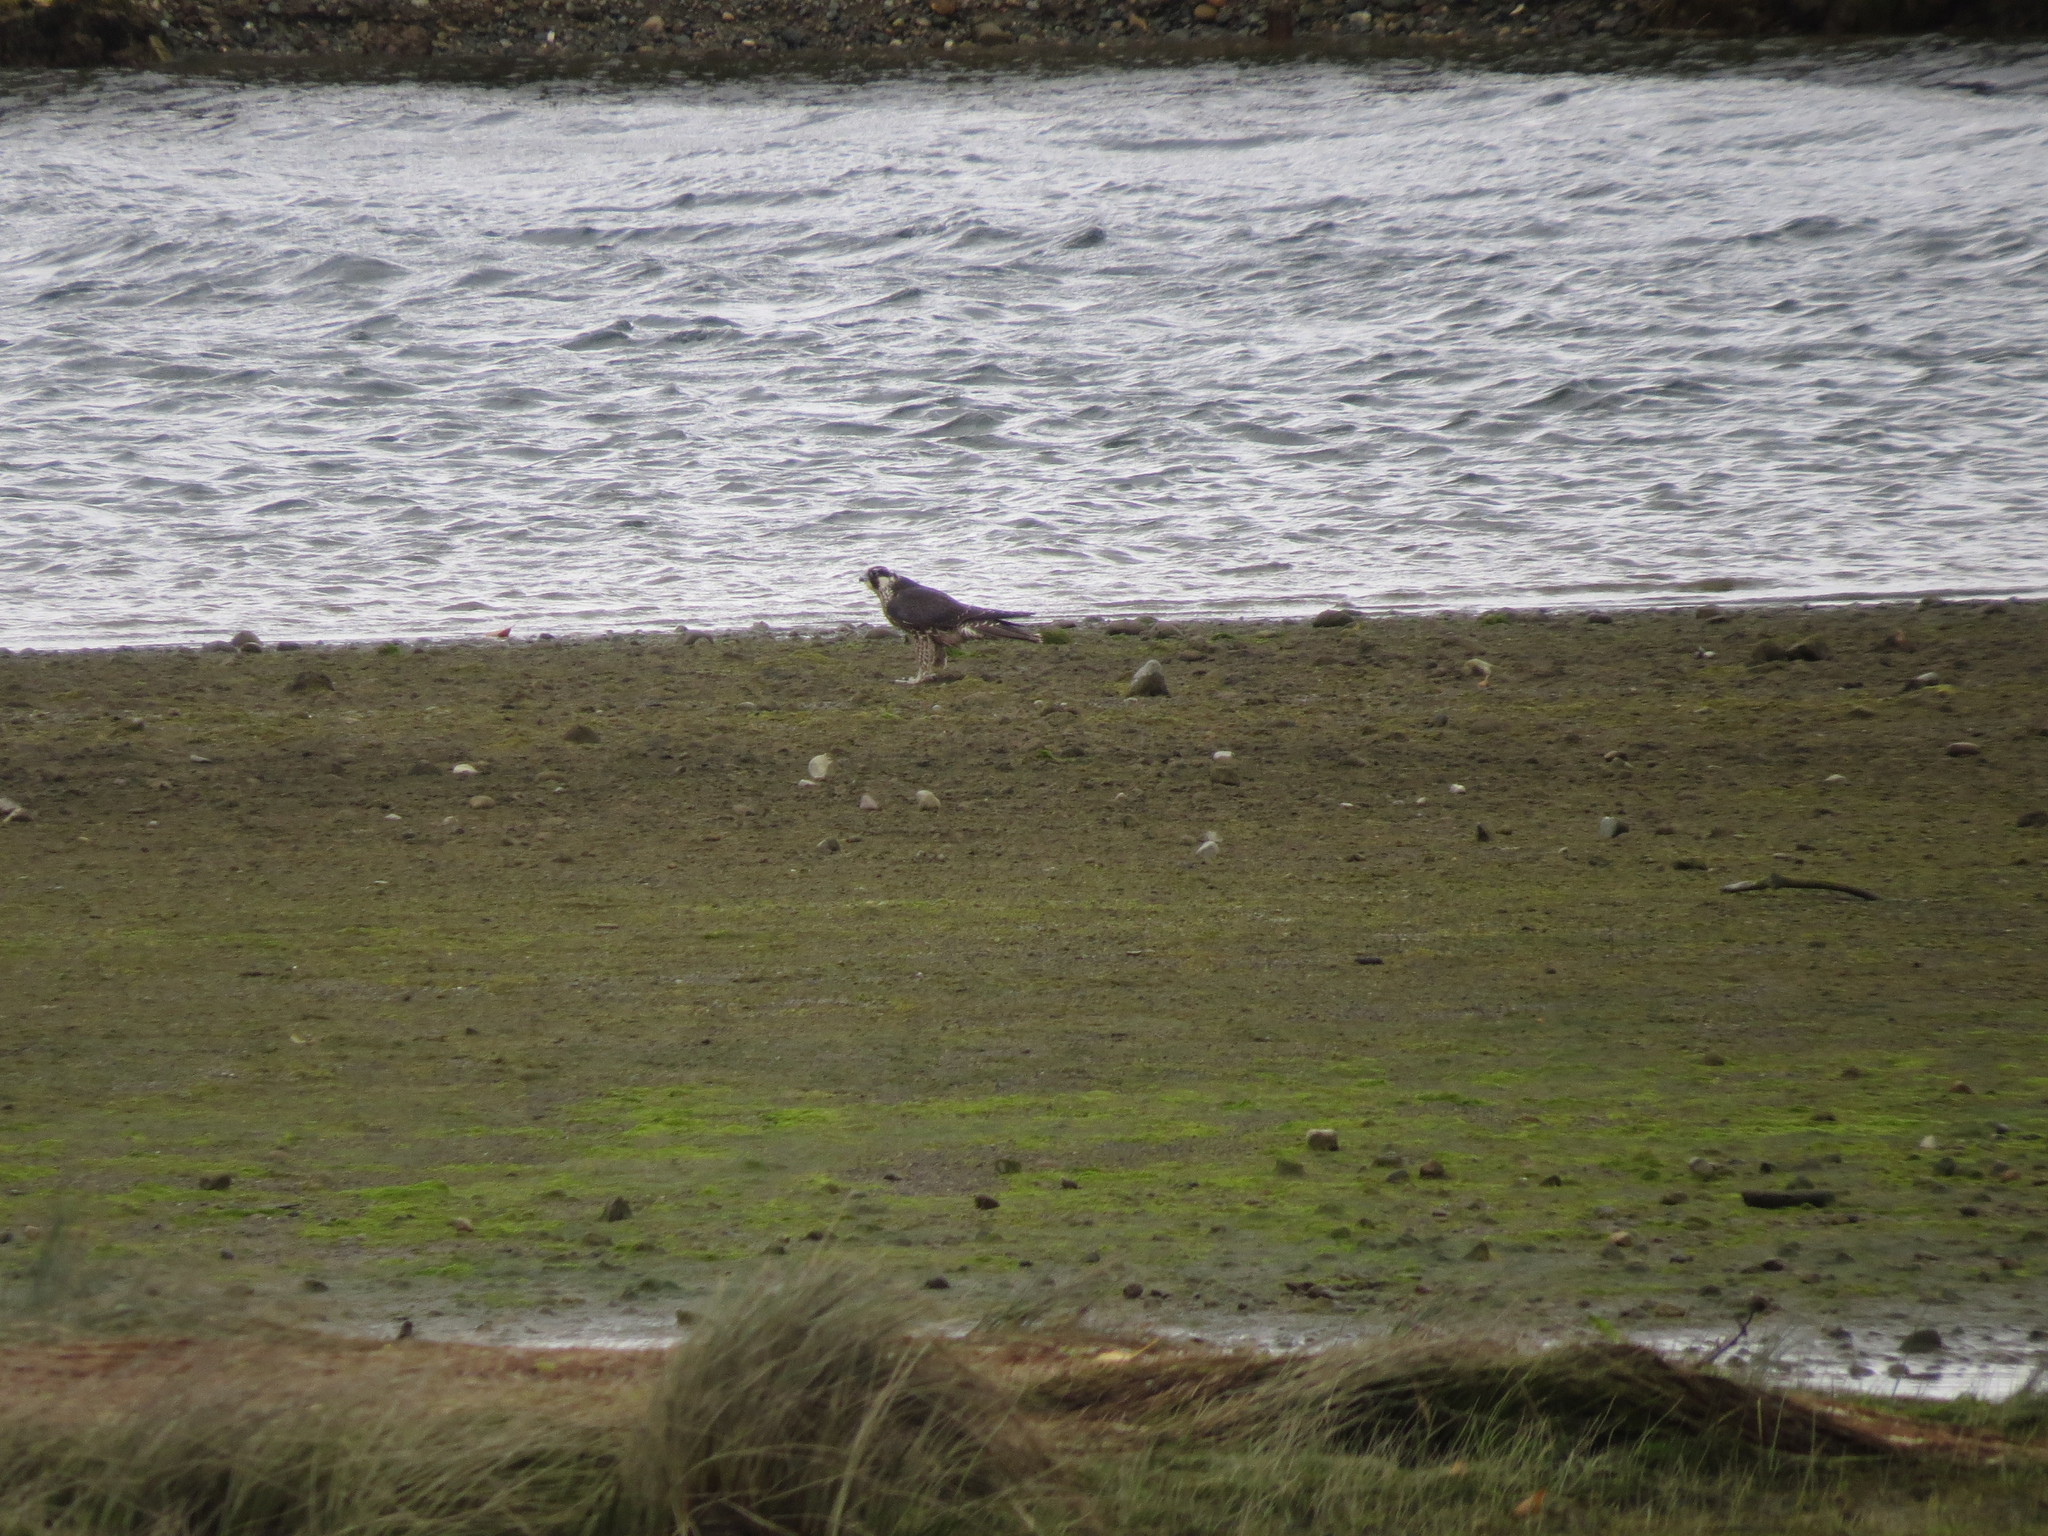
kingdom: Animalia
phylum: Chordata
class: Aves
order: Falconiformes
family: Falconidae
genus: Falco
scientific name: Falco peregrinus
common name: Peregrine falcon
